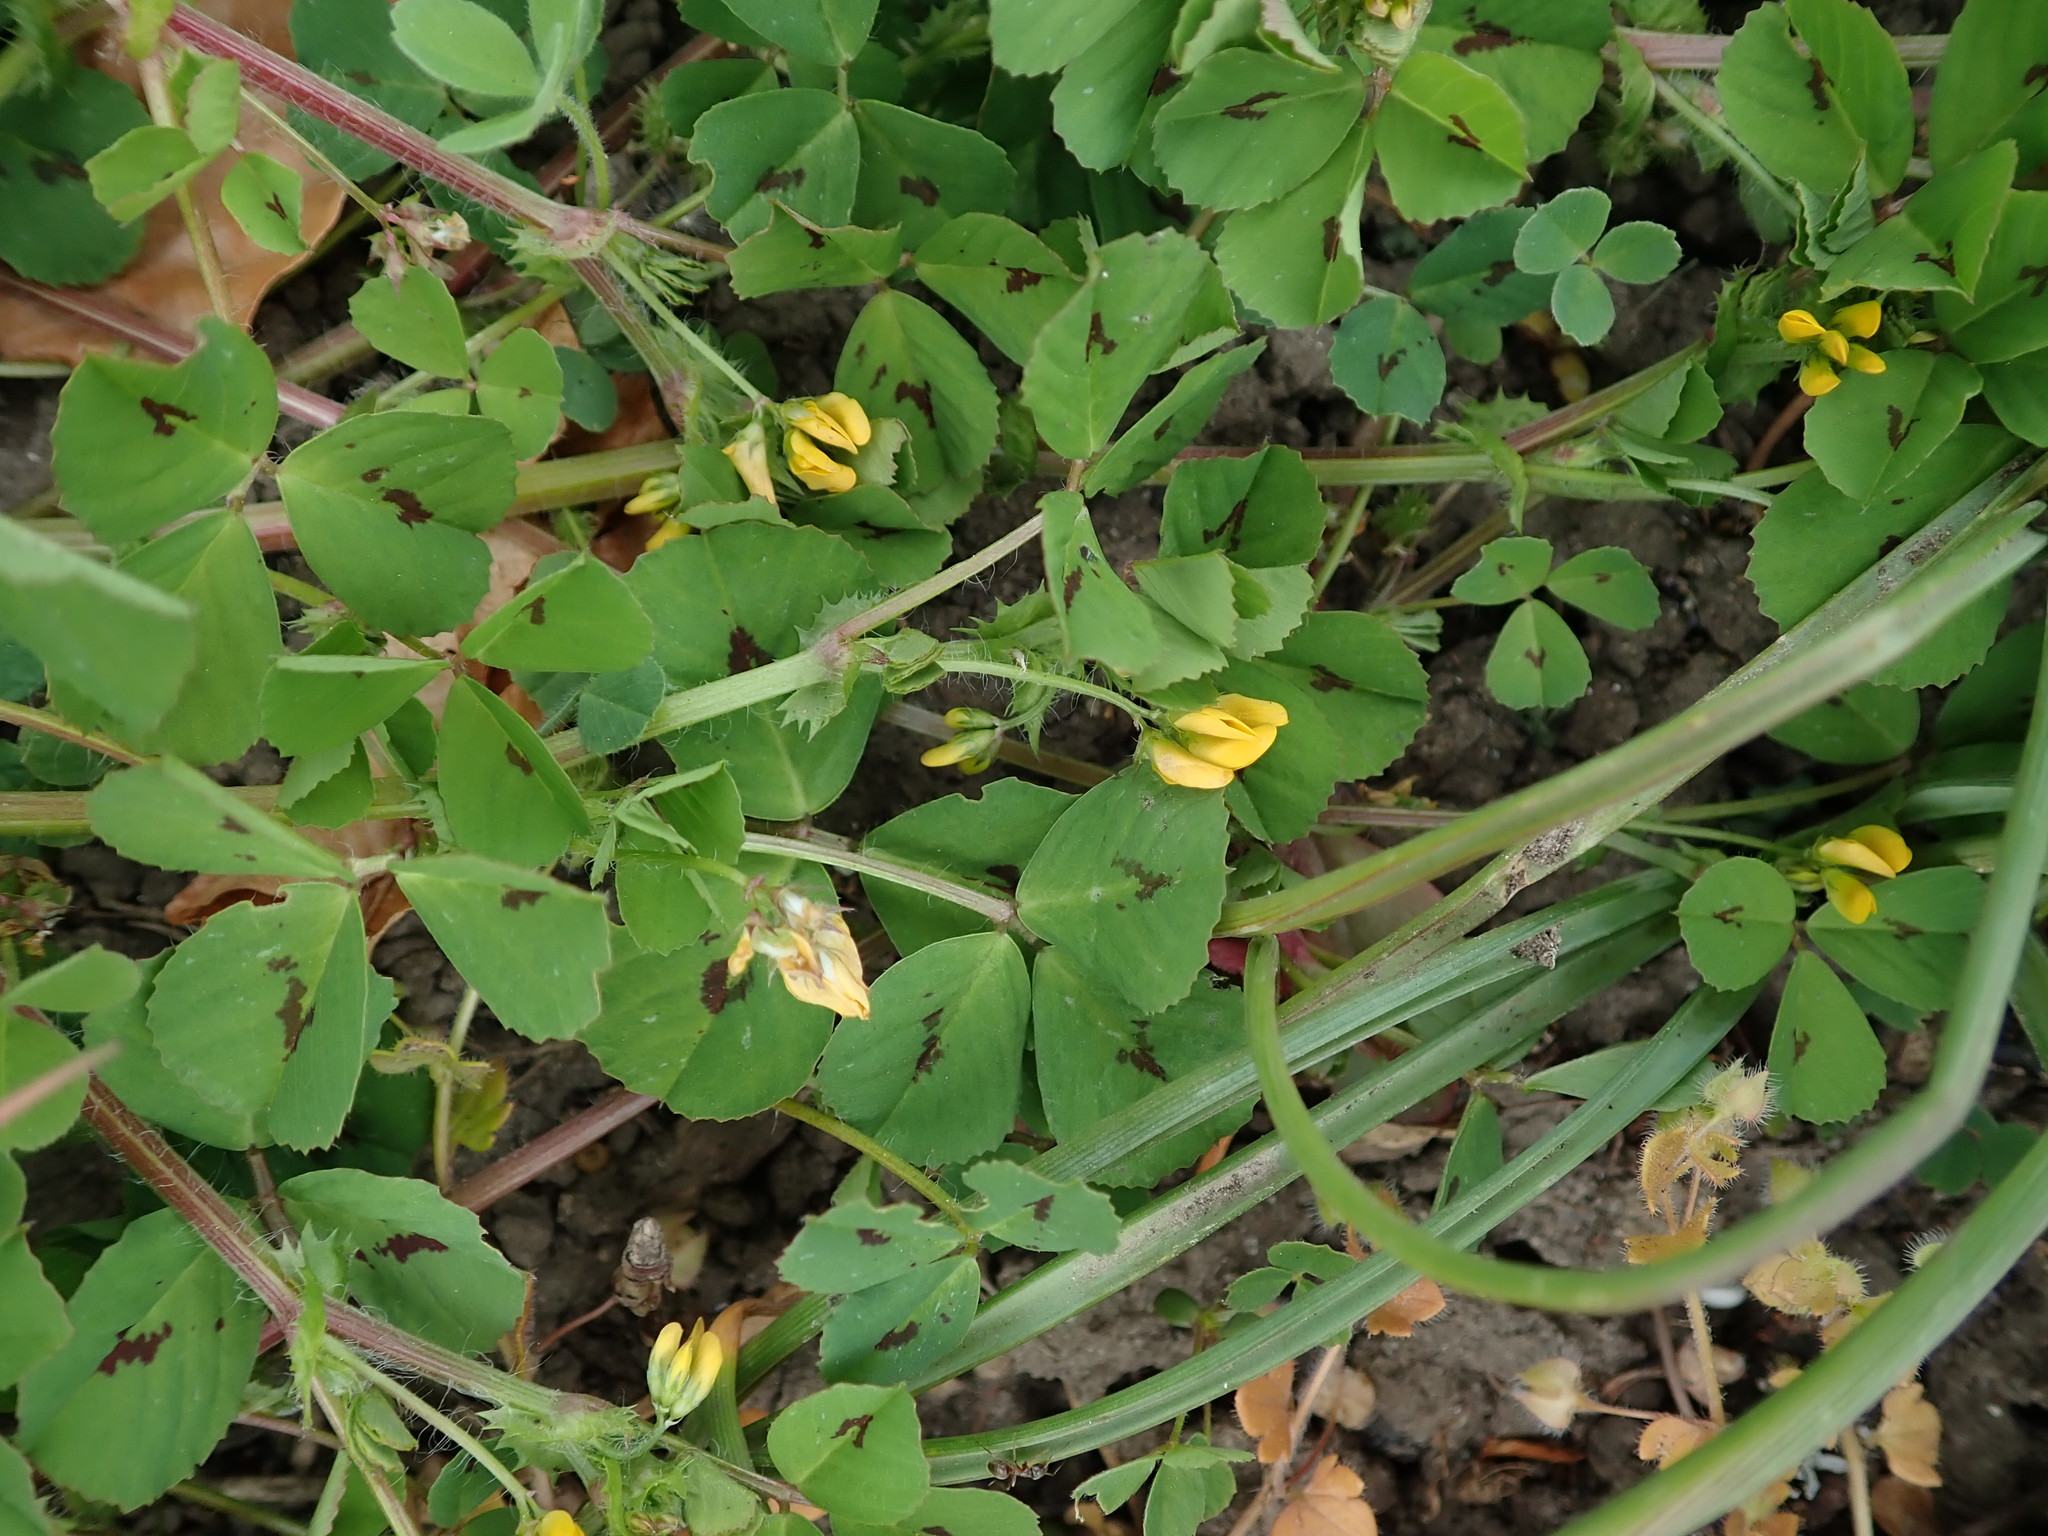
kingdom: Plantae
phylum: Tracheophyta
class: Magnoliopsida
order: Fabales
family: Fabaceae
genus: Medicago
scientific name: Medicago arabica
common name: Spotted medick
